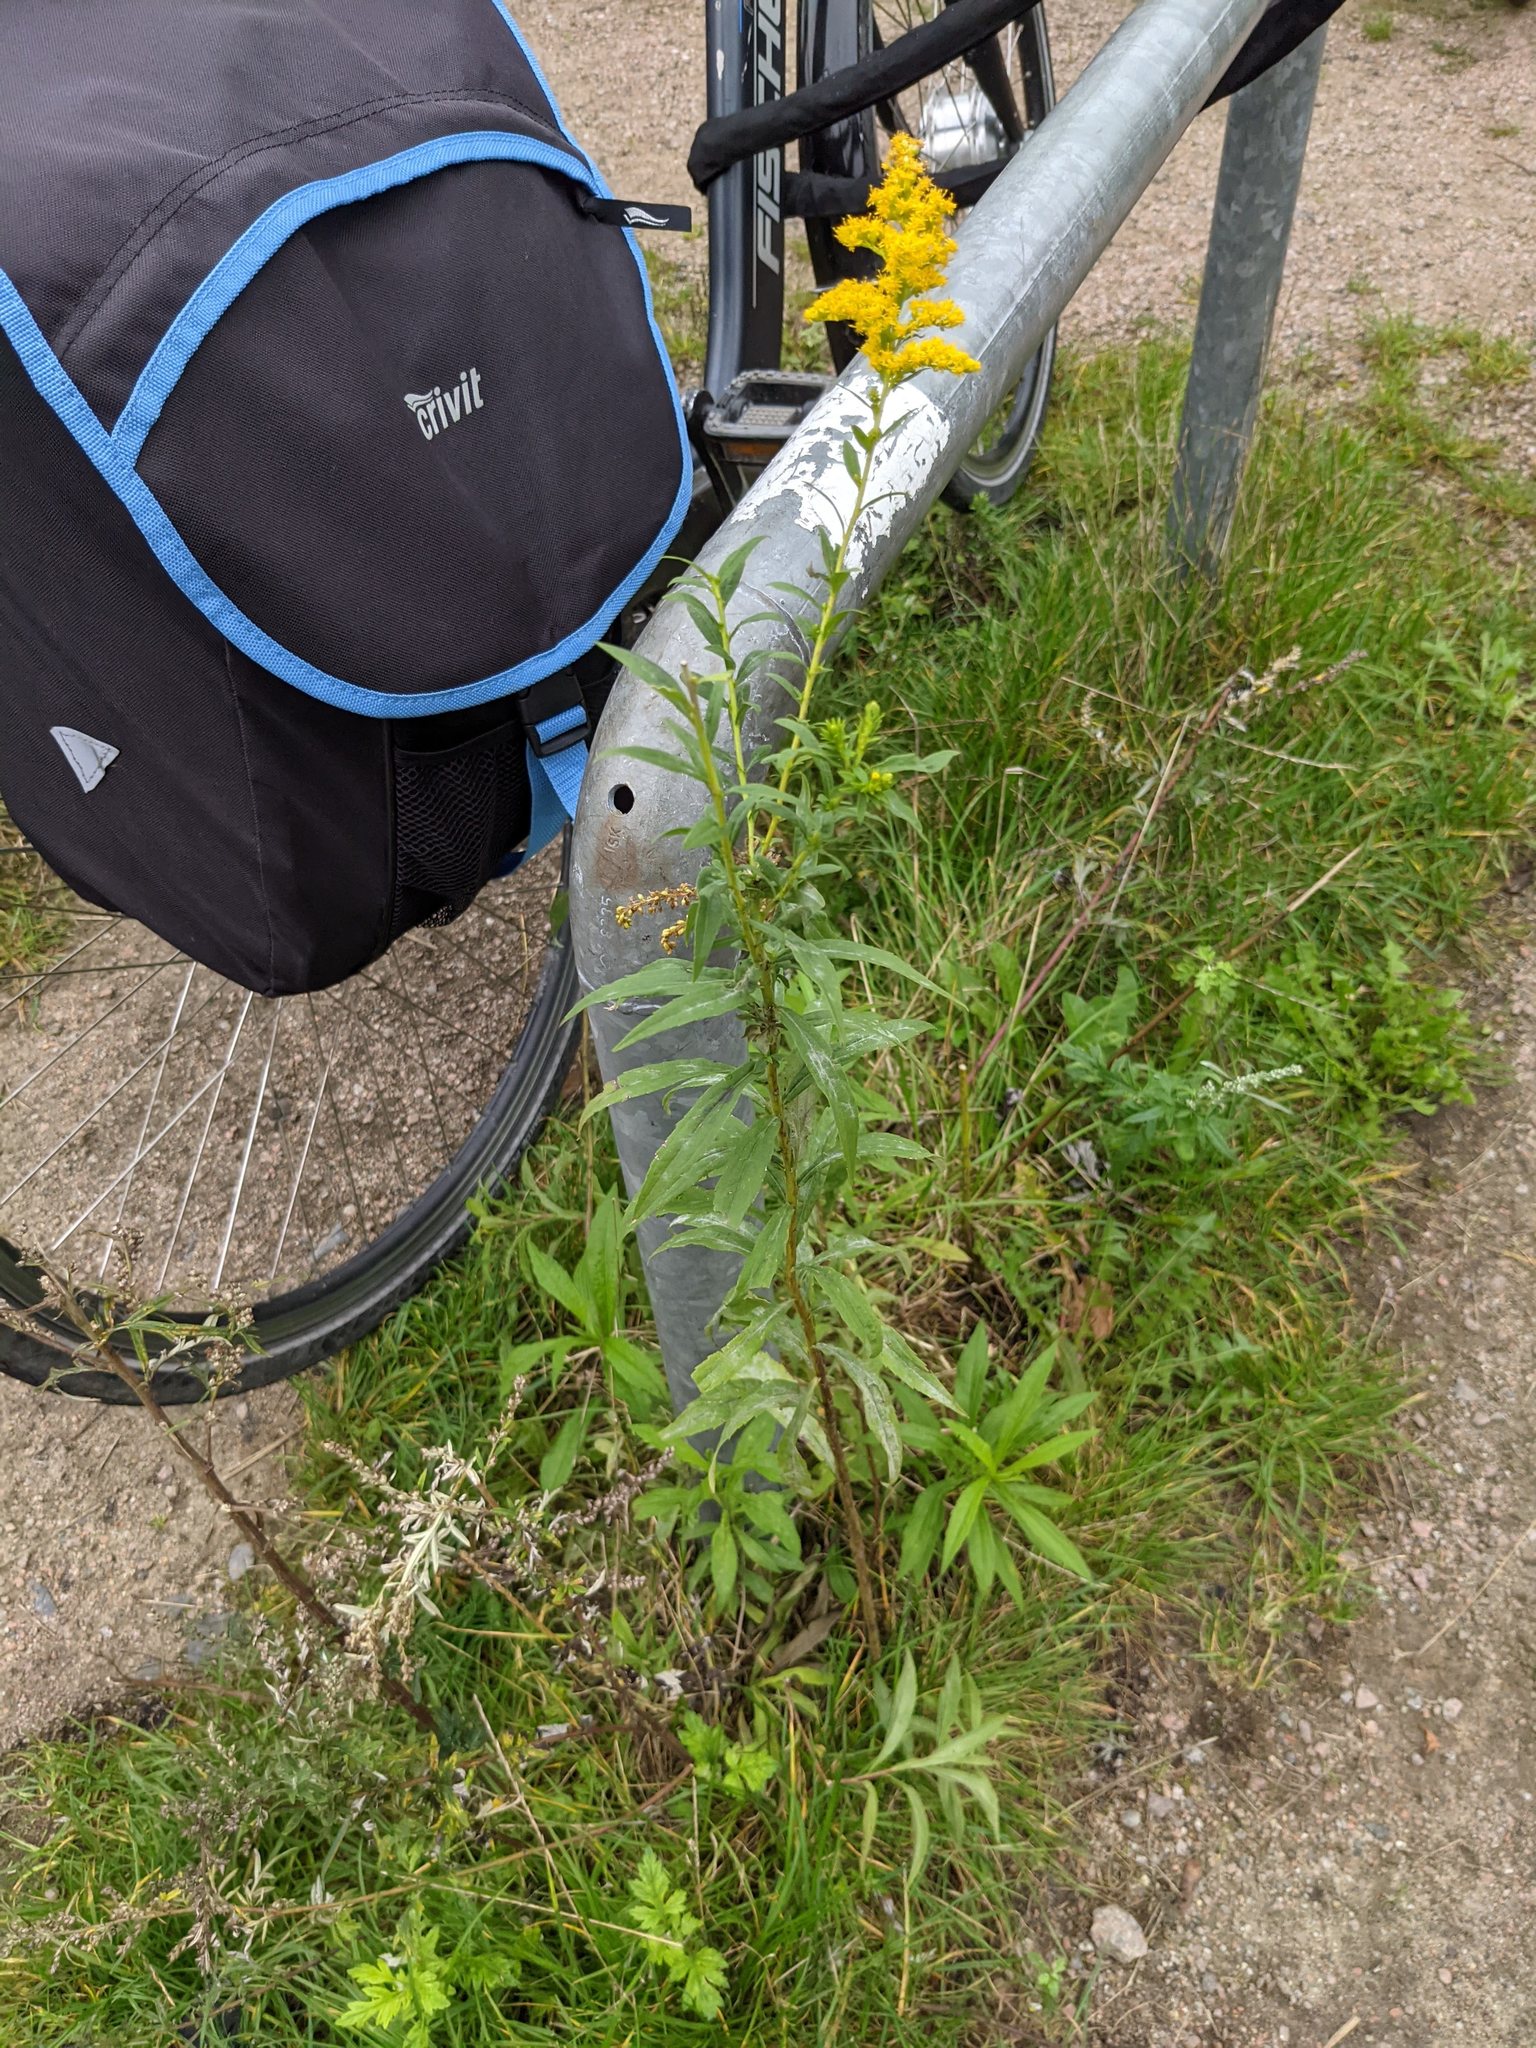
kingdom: Plantae
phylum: Tracheophyta
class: Magnoliopsida
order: Asterales
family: Asteraceae
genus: Solidago
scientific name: Solidago canadensis
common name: Canada goldenrod
